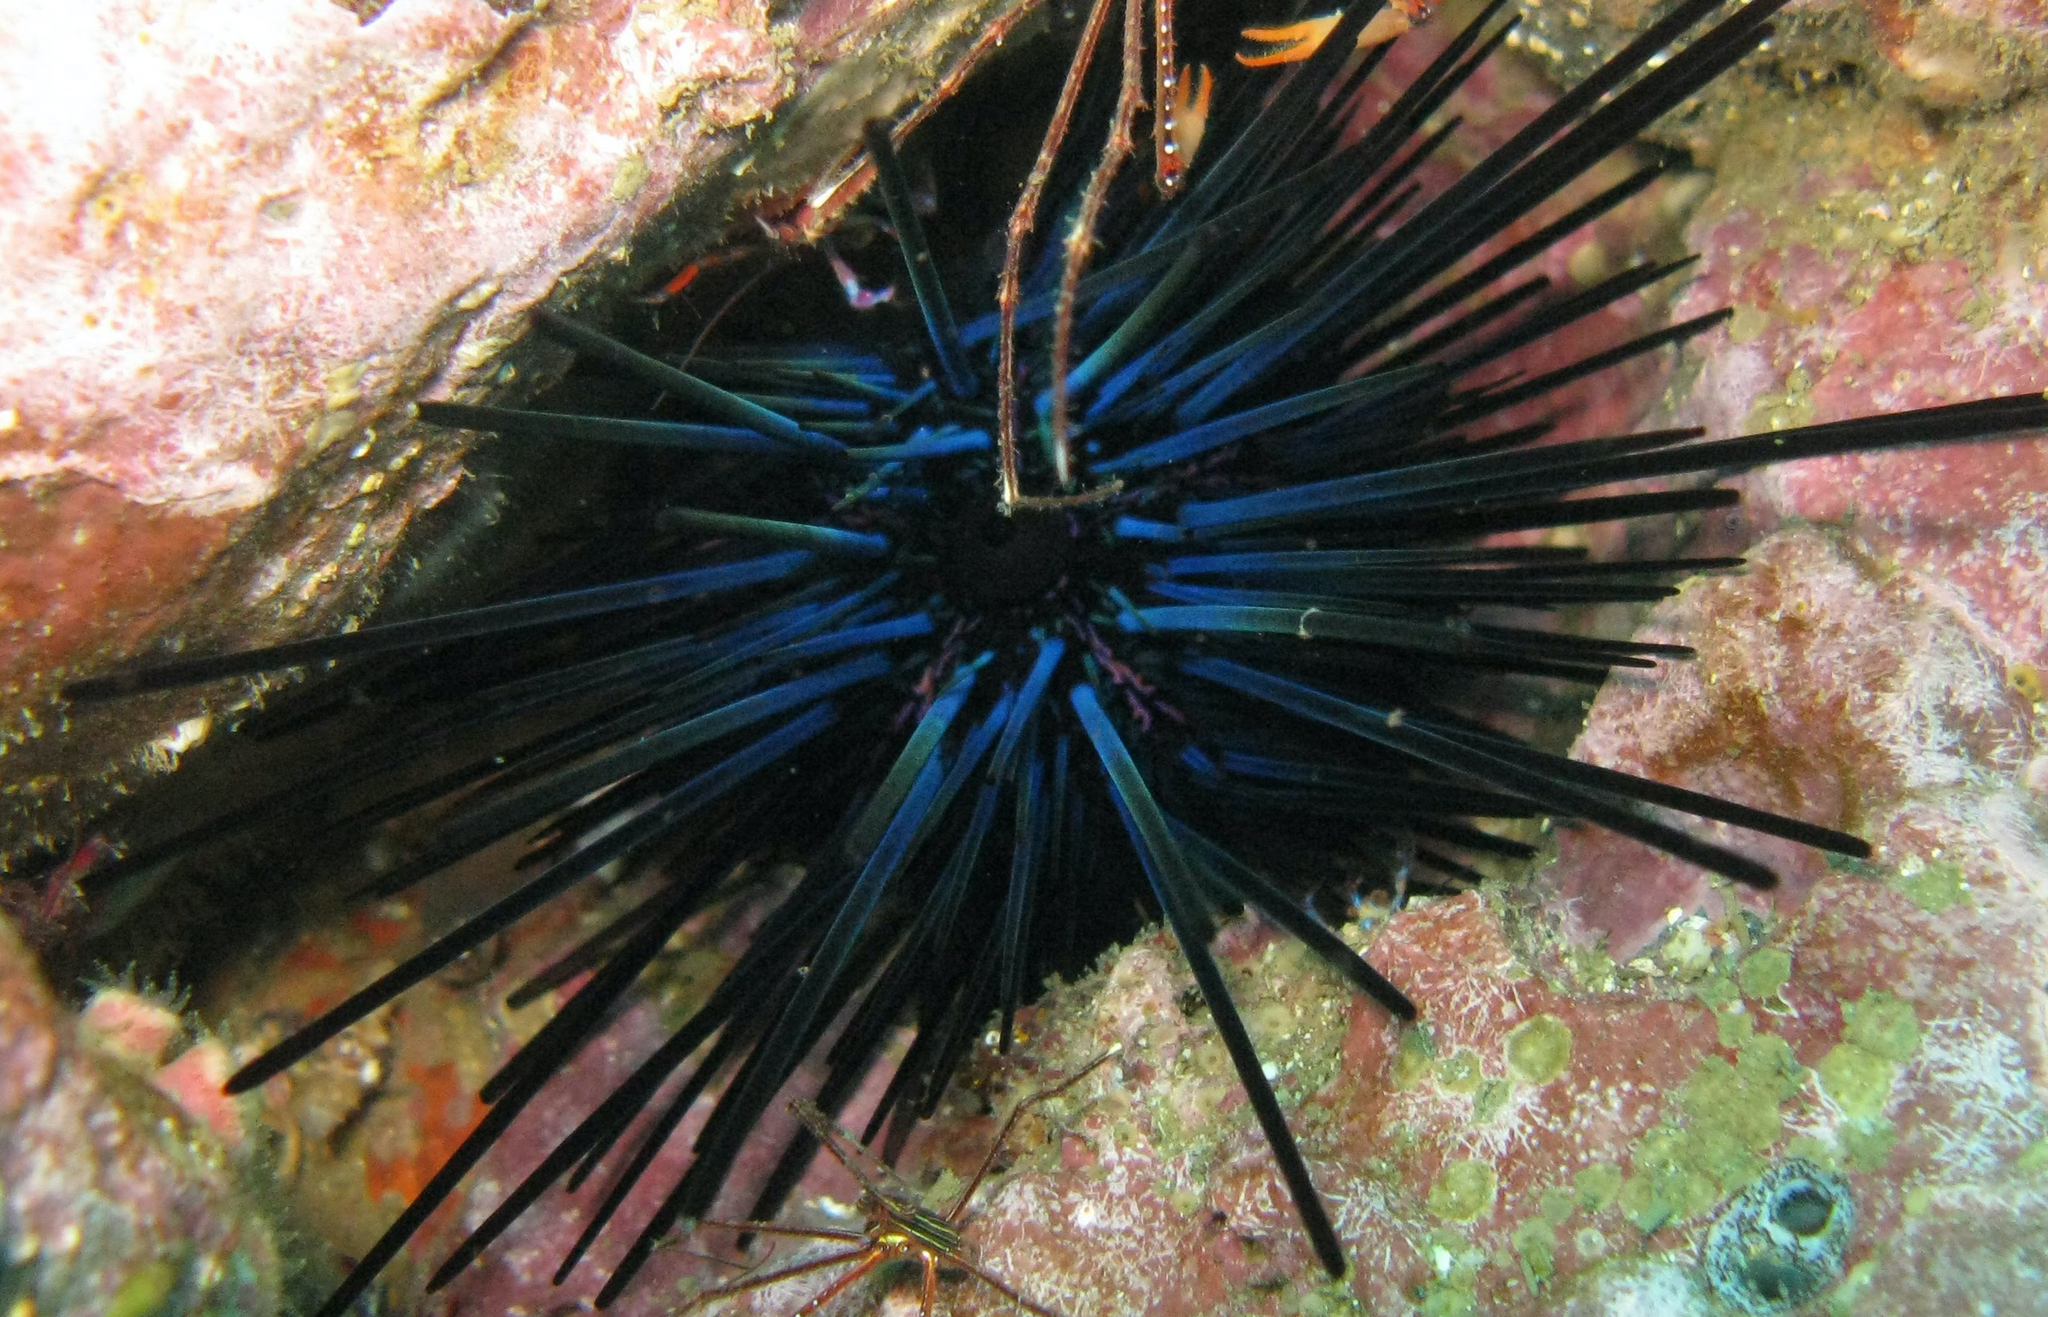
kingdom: Animalia
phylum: Echinodermata
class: Echinoidea
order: Diadematoida
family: Diadematidae
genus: Diadema
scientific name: Diadema mexicanum
